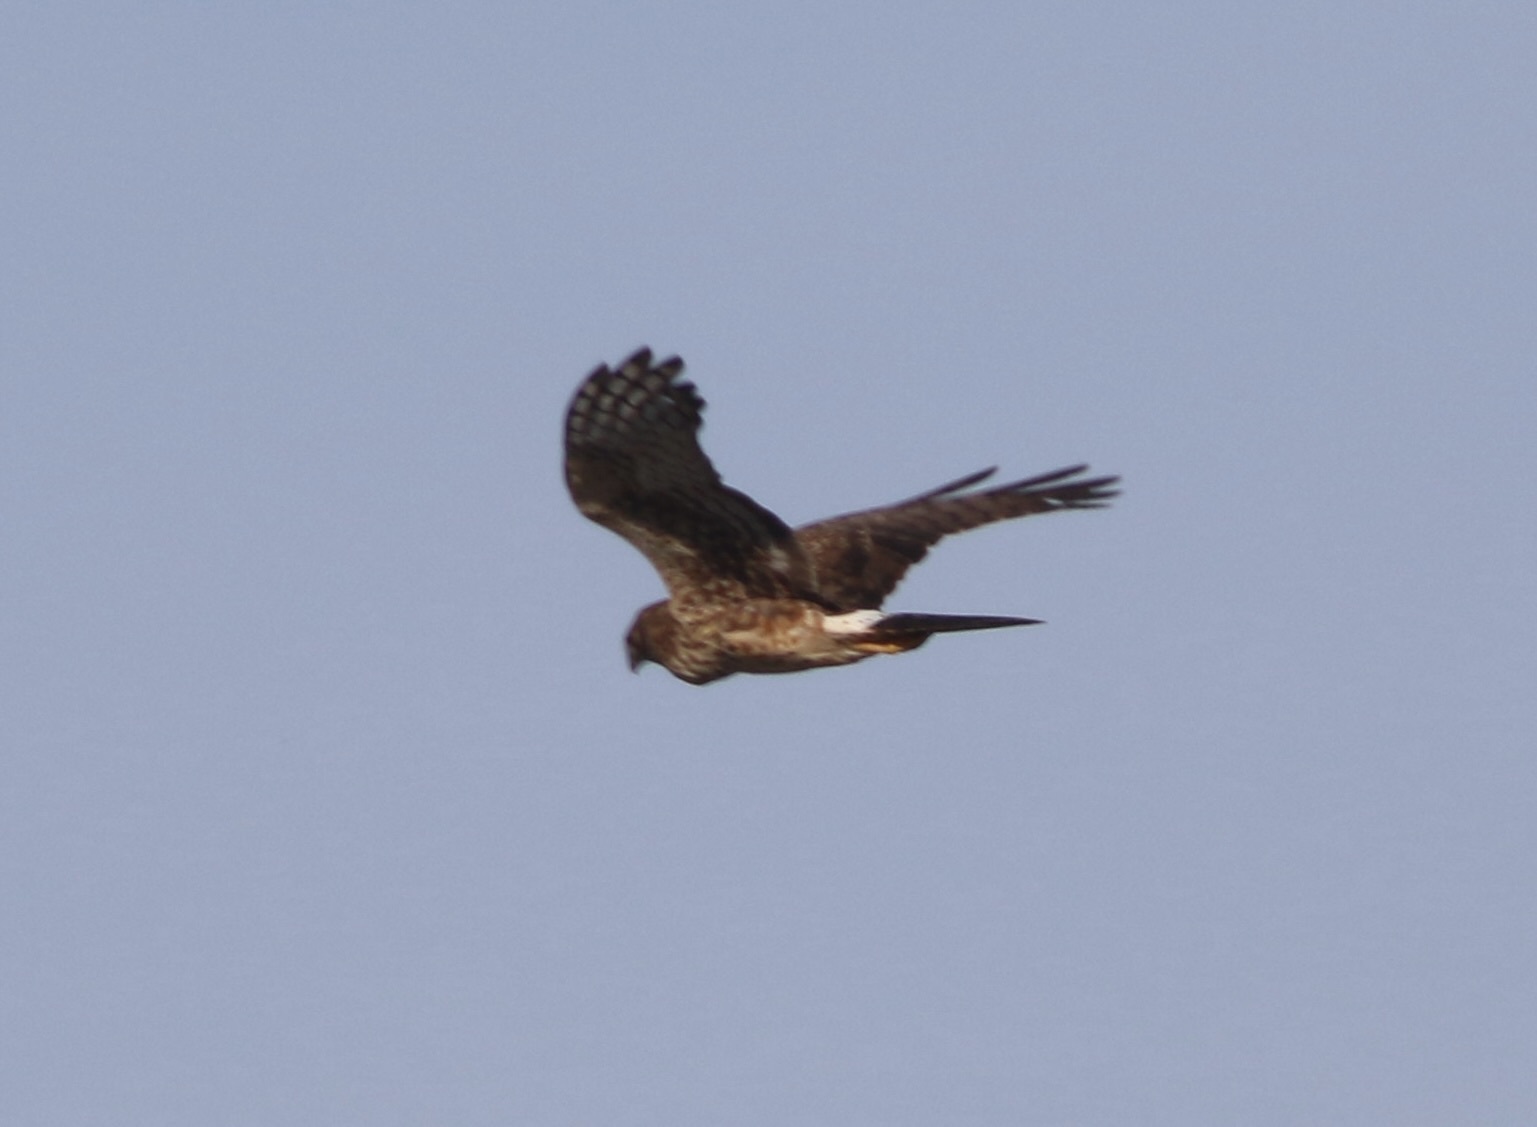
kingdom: Animalia
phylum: Chordata
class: Aves
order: Accipitriformes
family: Accipitridae
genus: Circus
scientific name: Circus cyaneus
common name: Hen harrier
